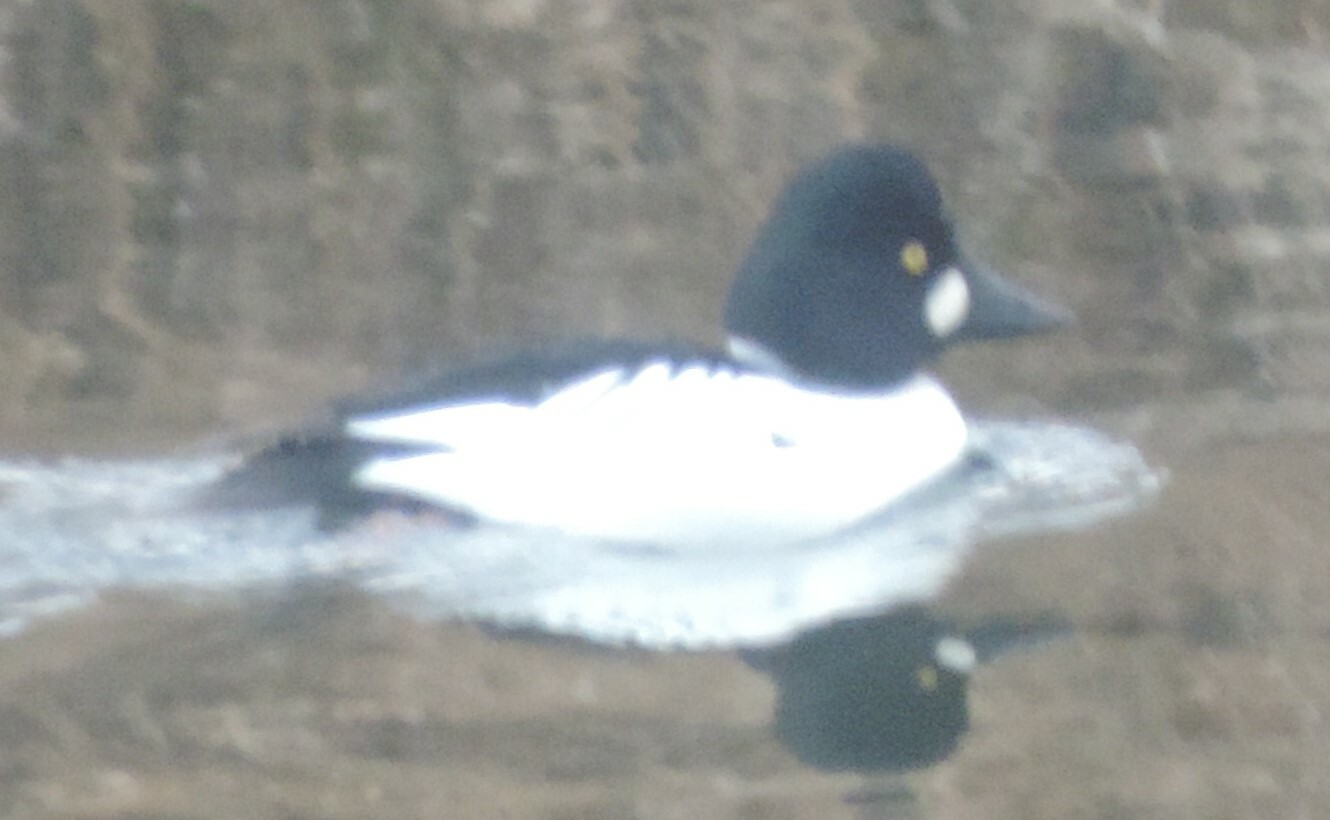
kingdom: Animalia
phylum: Chordata
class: Aves
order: Anseriformes
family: Anatidae
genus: Bucephala
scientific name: Bucephala clangula
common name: Common goldeneye
